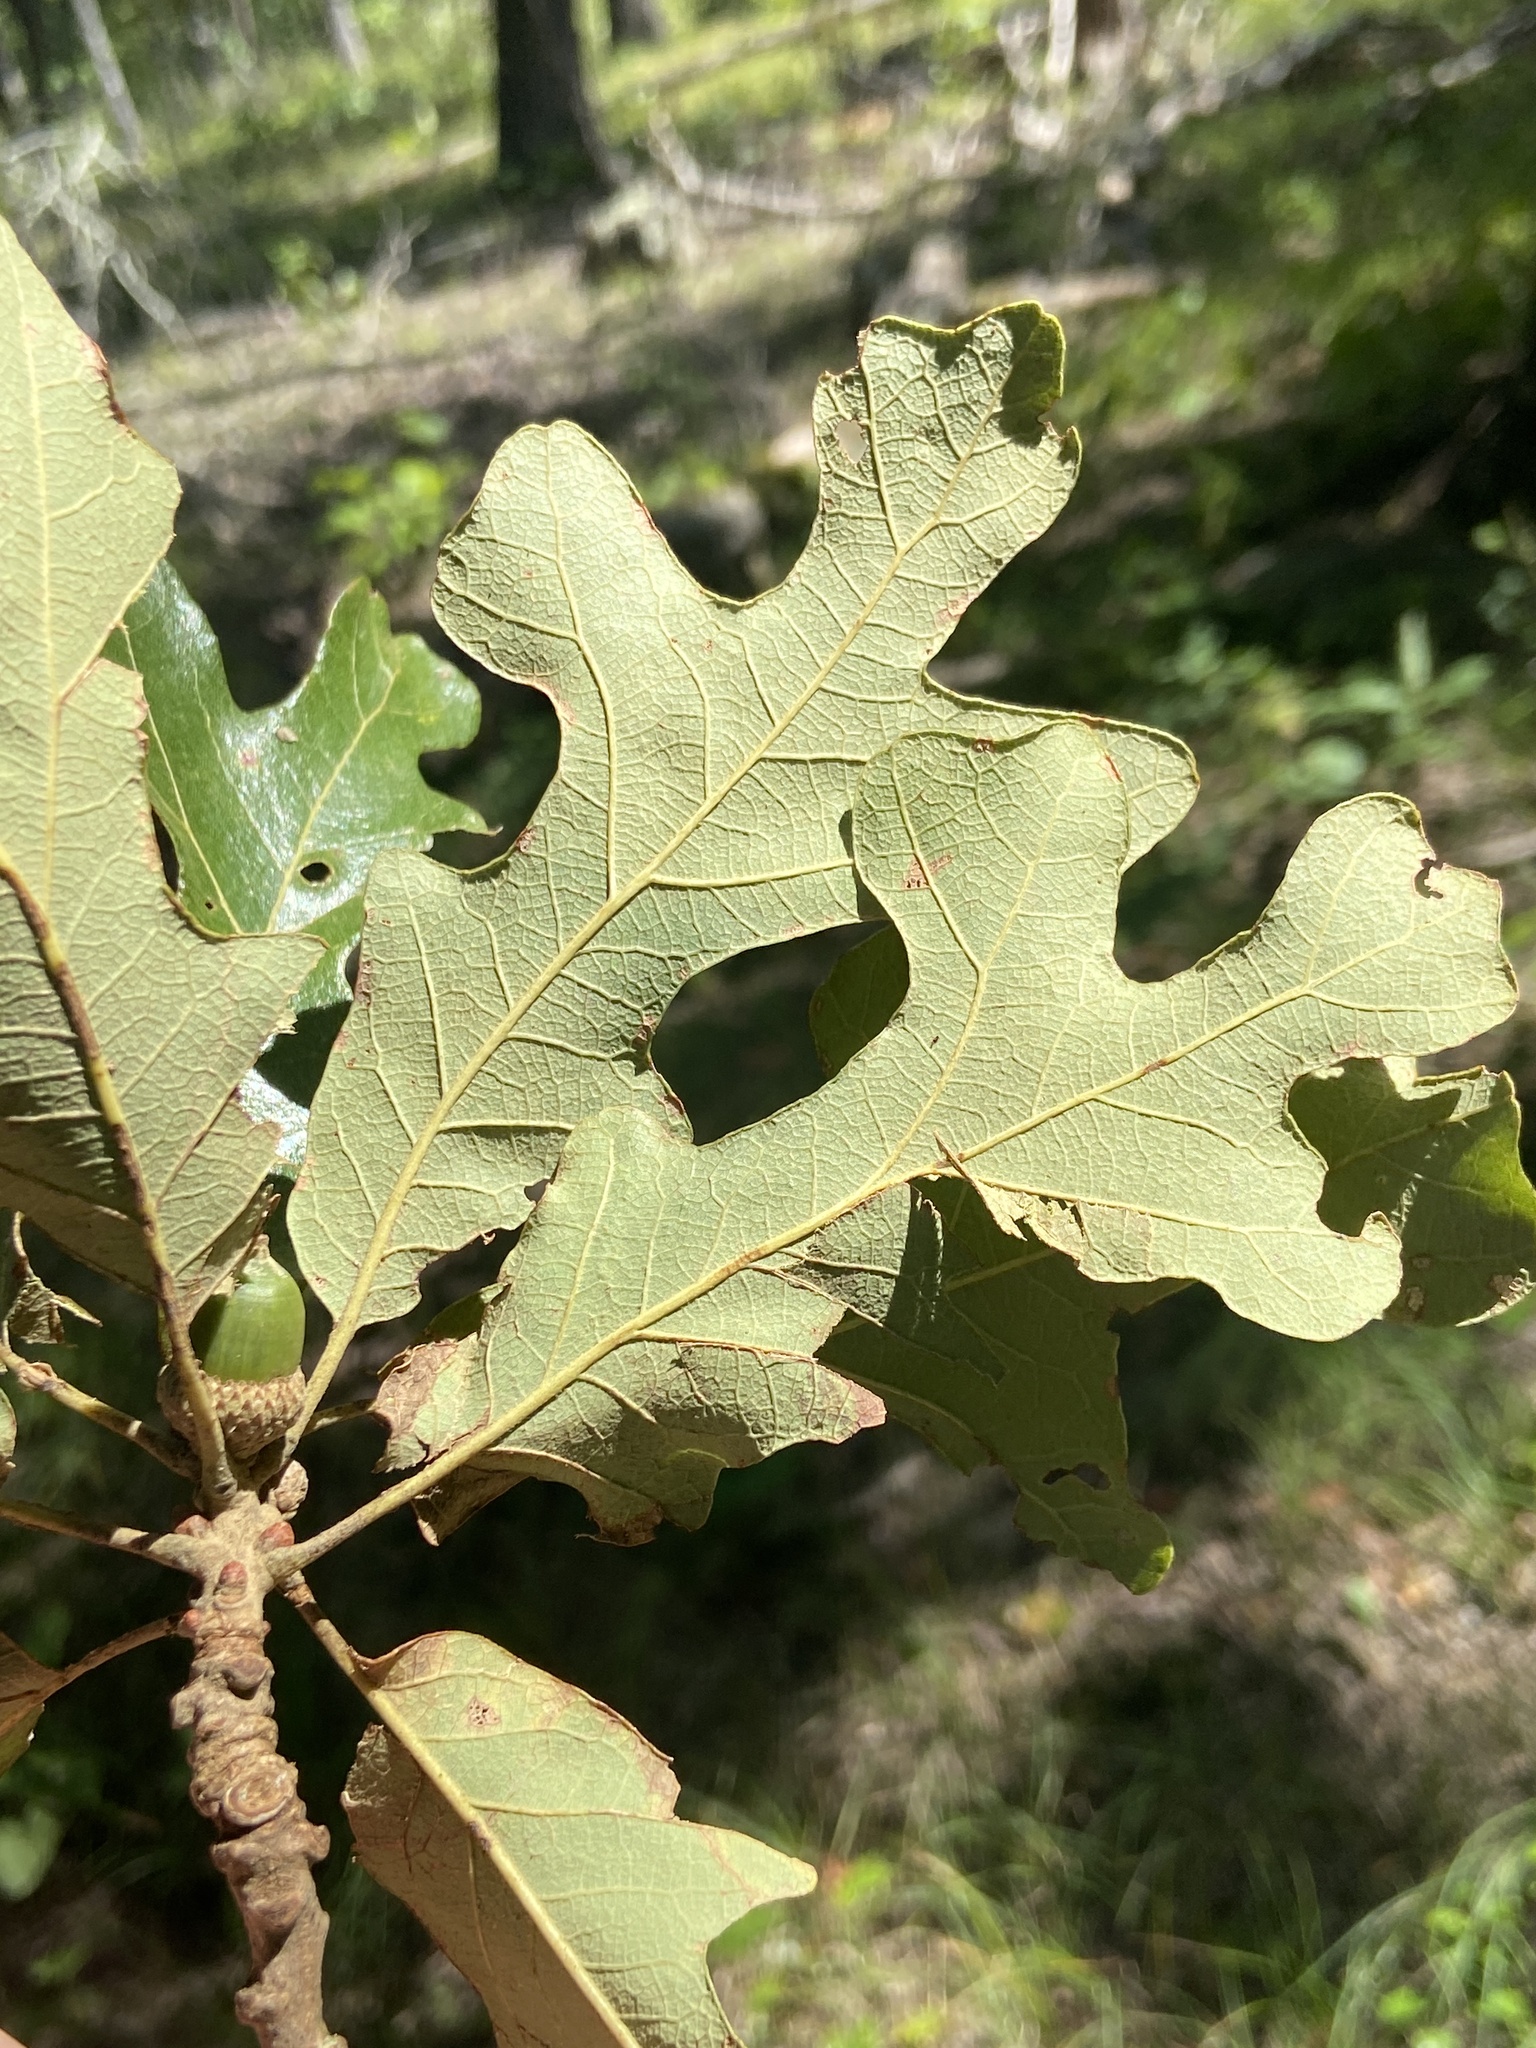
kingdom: Plantae
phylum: Tracheophyta
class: Magnoliopsida
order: Fagales
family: Fagaceae
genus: Quercus
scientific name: Quercus stellata
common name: Post oak
